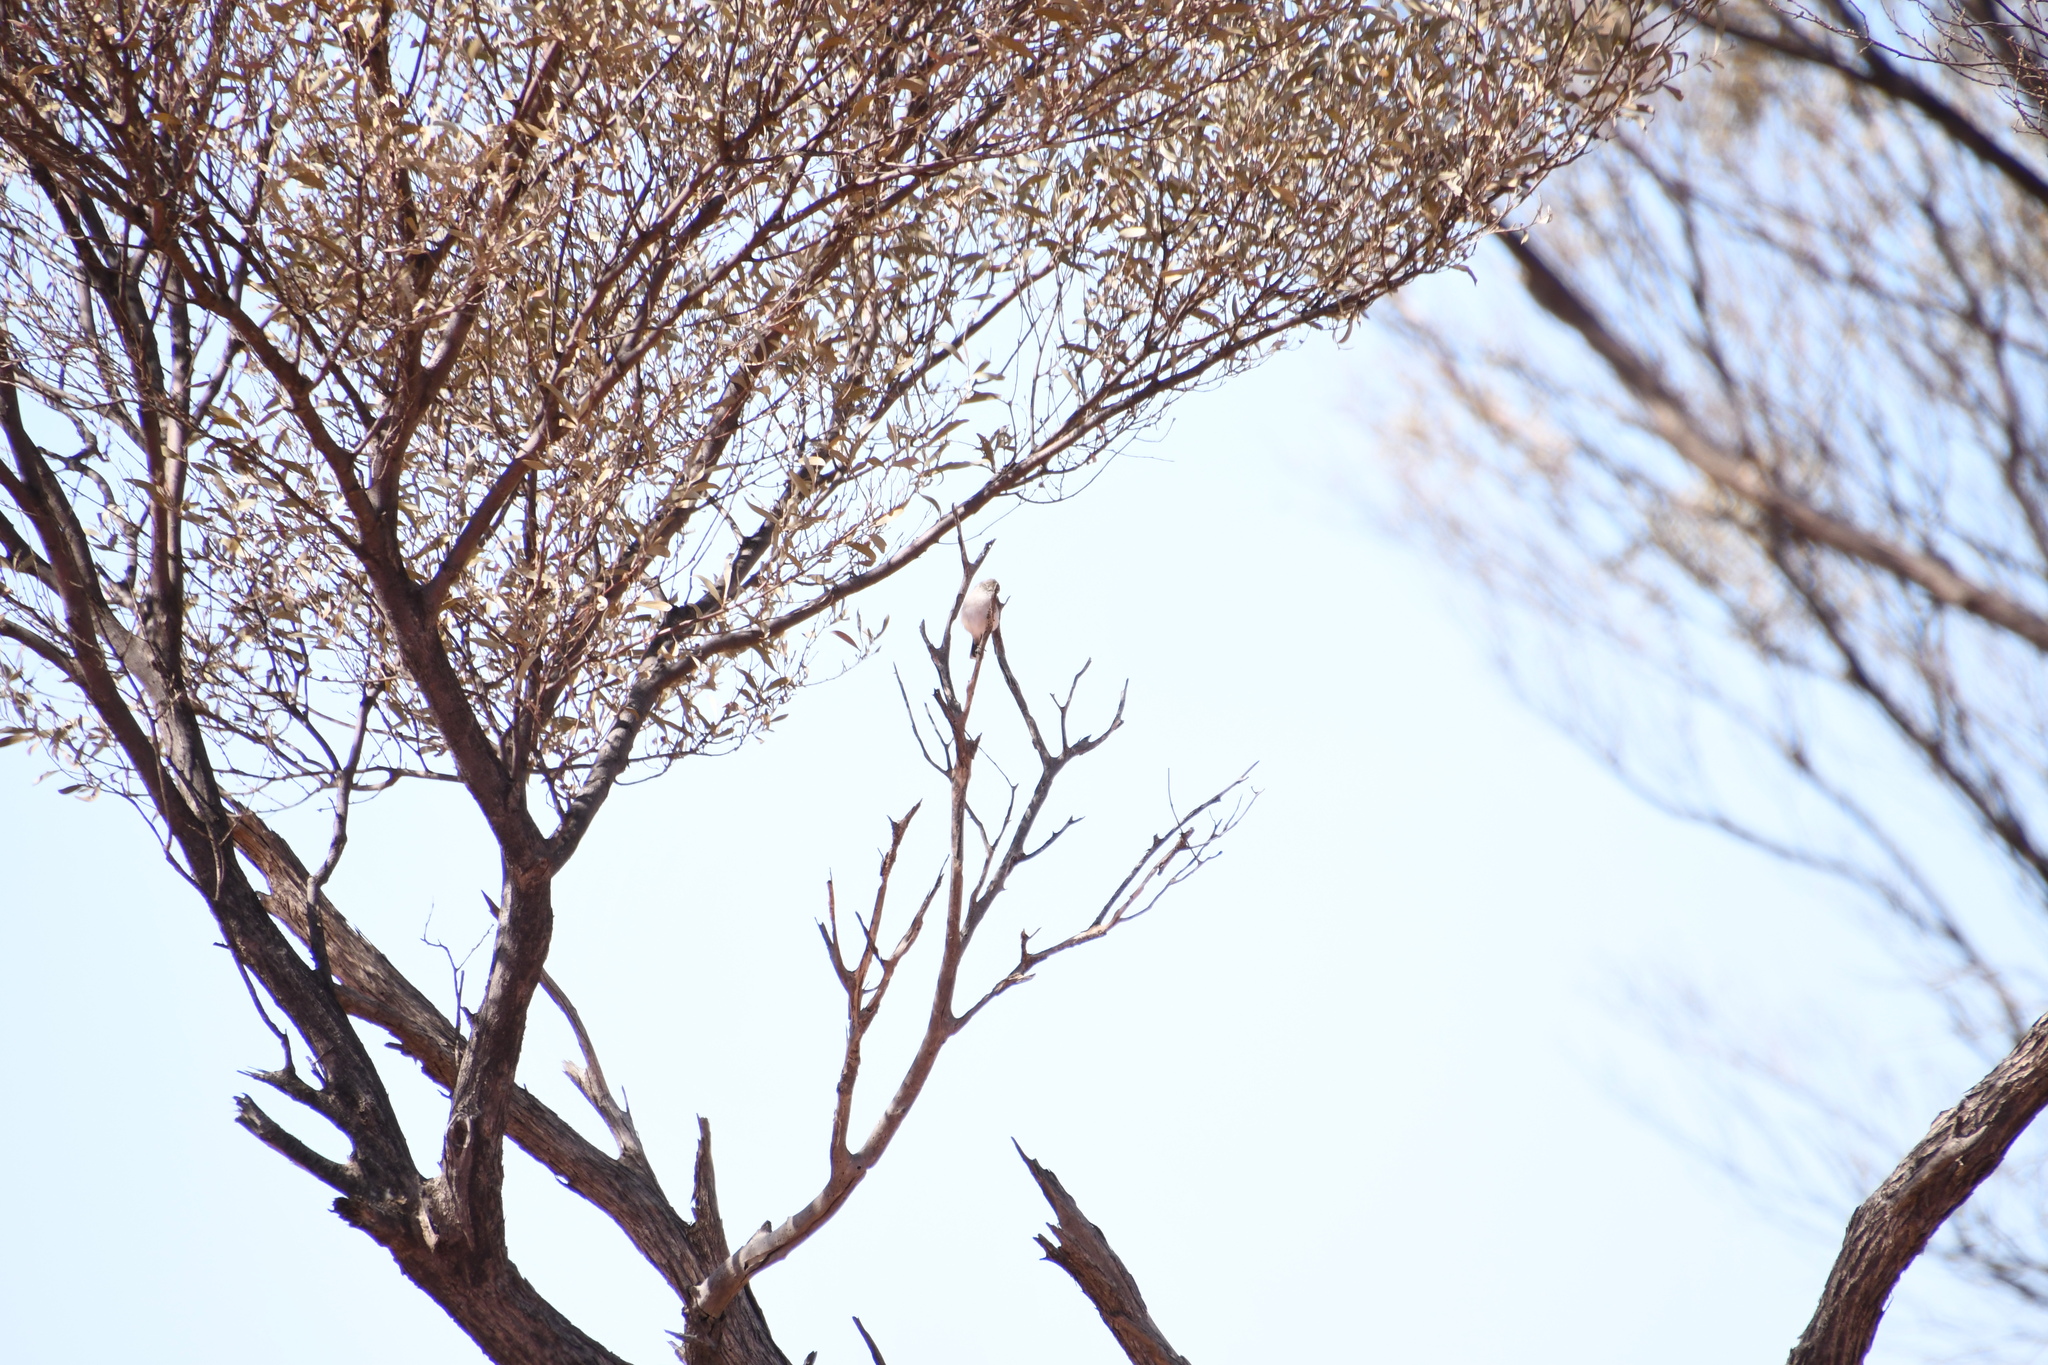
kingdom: Animalia
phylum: Chordata
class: Aves
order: Passeriformes
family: Acanthizidae
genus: Acanthiza
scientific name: Acanthiza uropygialis
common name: Chestnut-rumped thornbill
